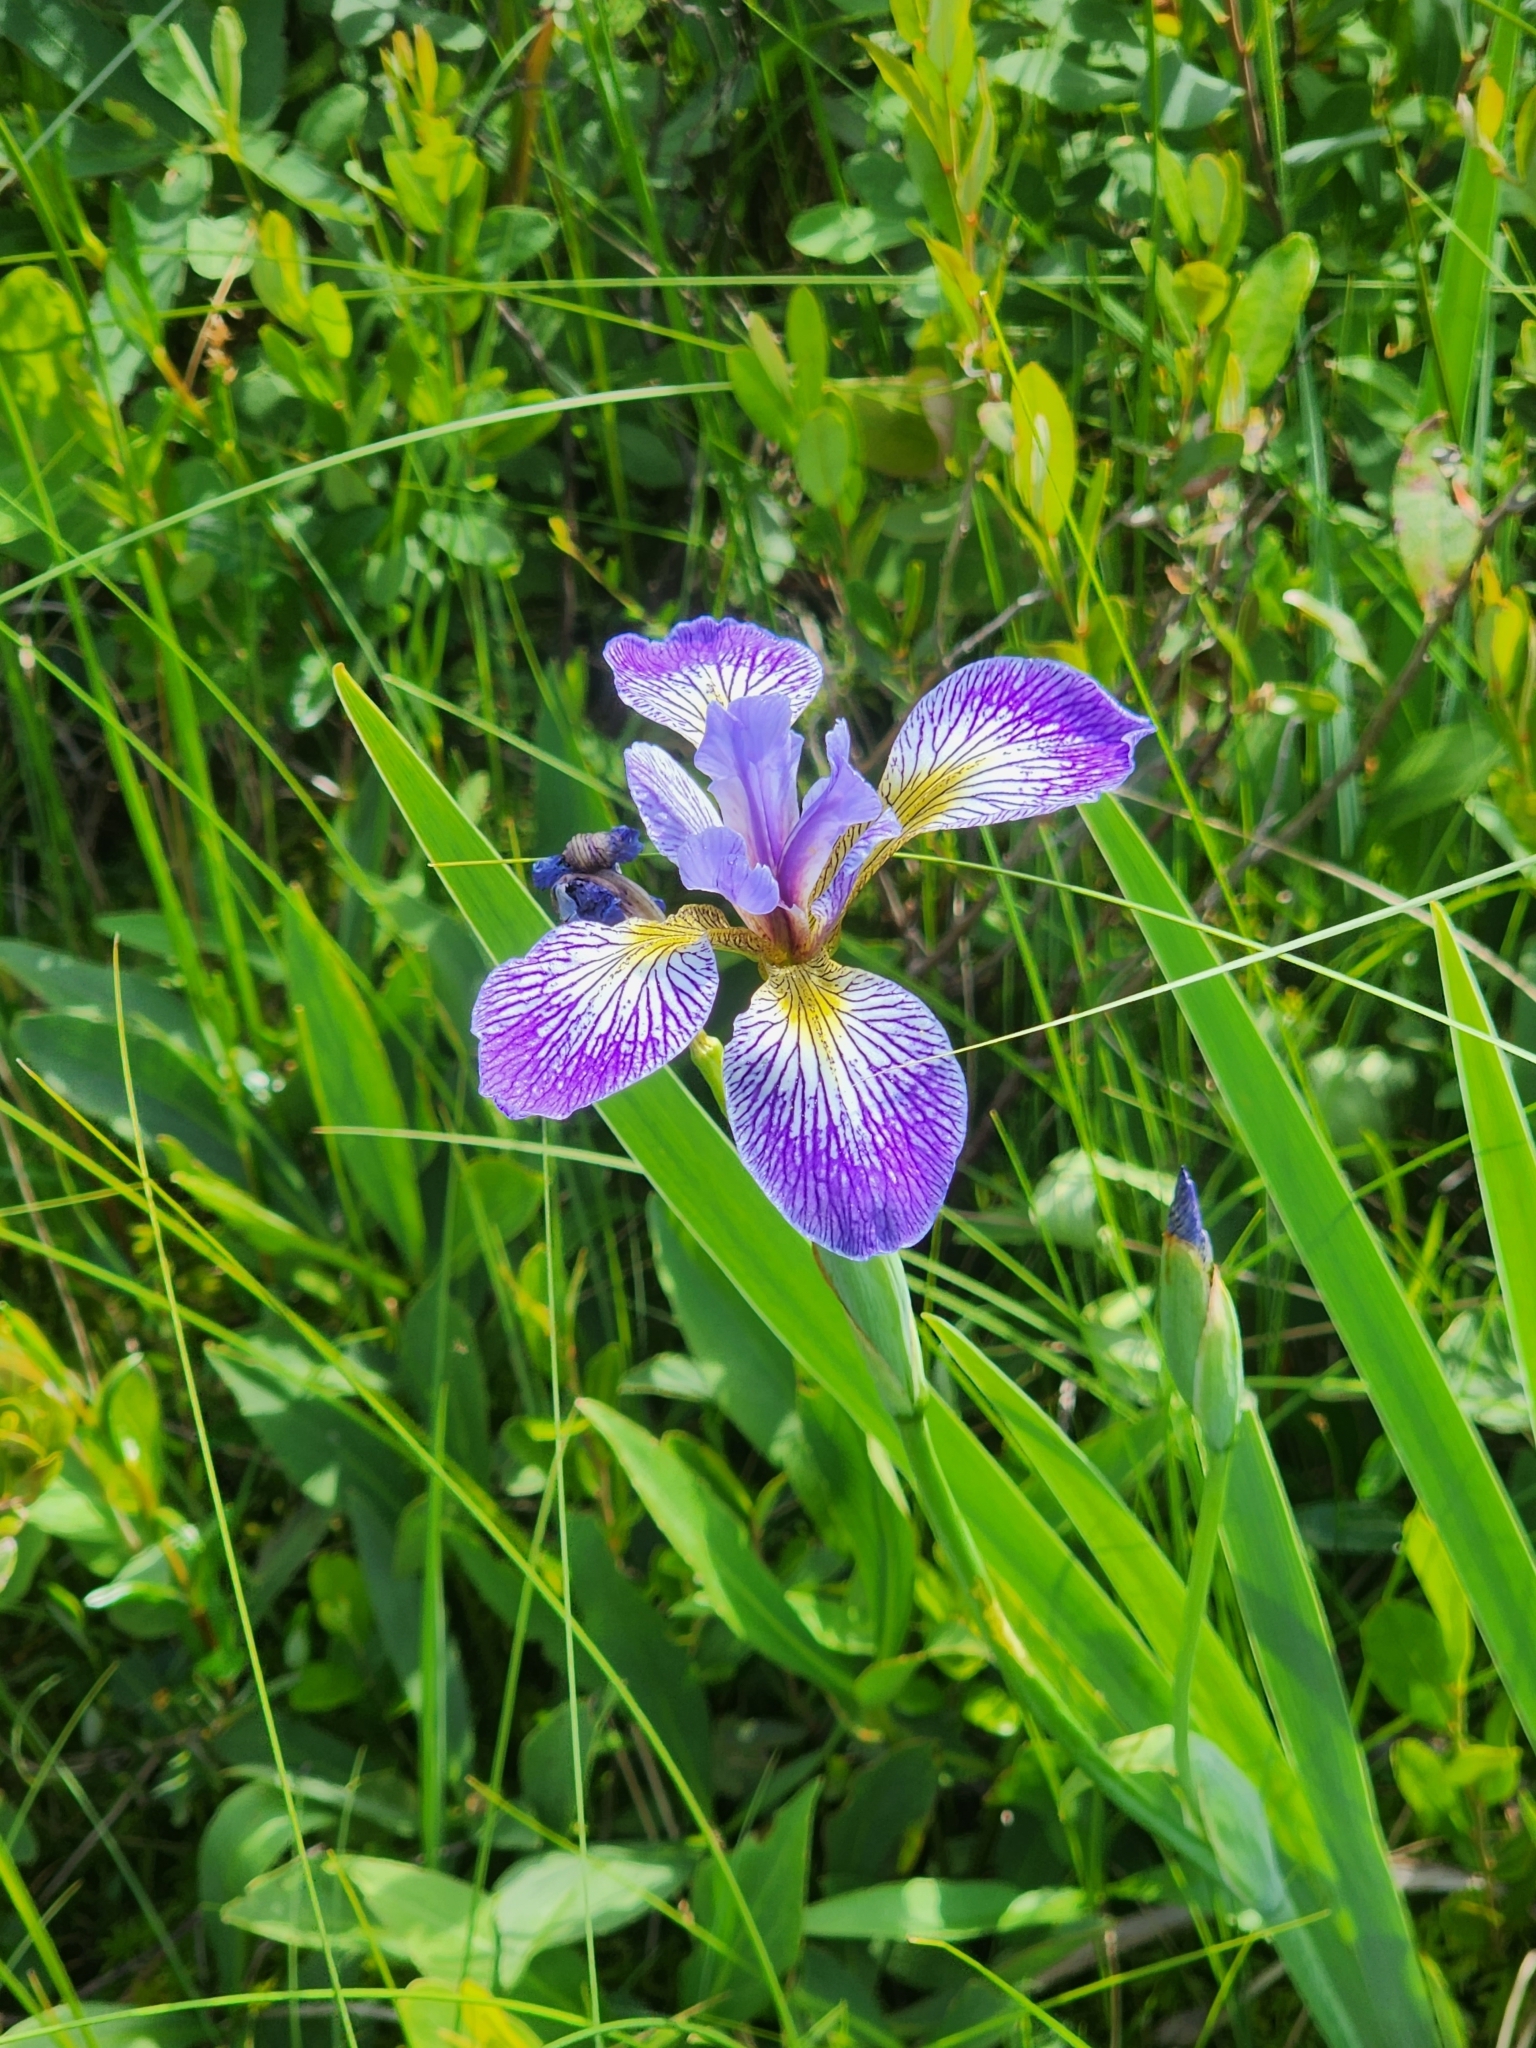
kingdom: Plantae
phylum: Tracheophyta
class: Liliopsida
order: Asparagales
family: Iridaceae
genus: Iris
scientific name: Iris versicolor
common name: Purple iris
